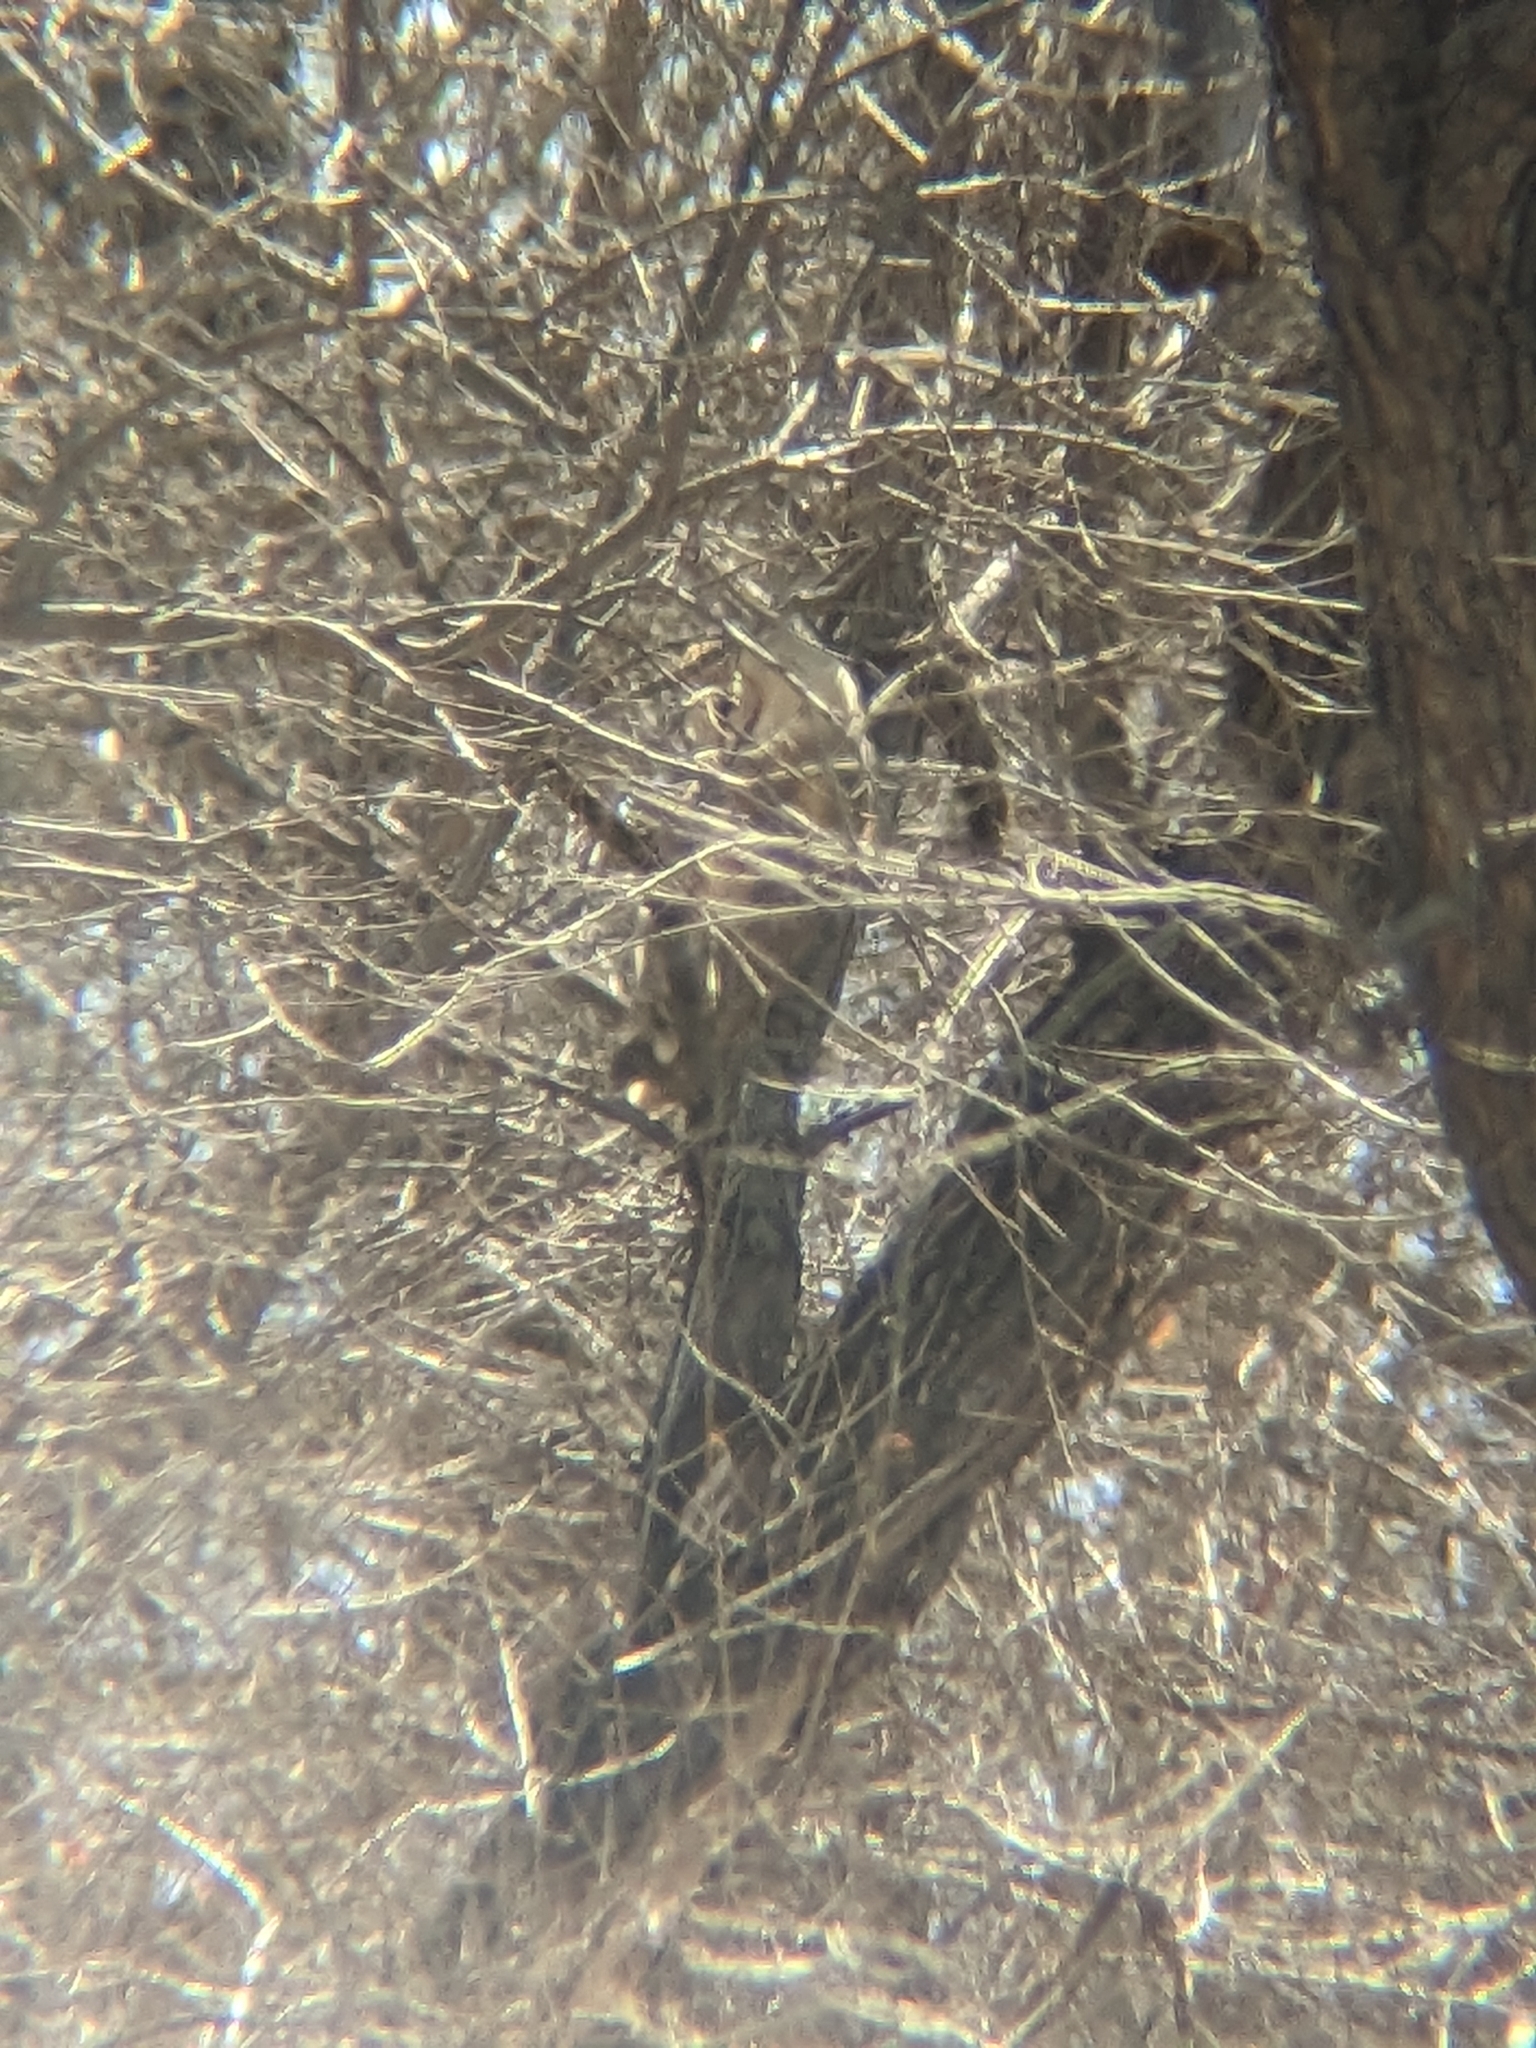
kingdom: Animalia
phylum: Chordata
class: Aves
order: Strigiformes
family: Tytonidae
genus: Tyto
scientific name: Tyto alba
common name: Barn owl
